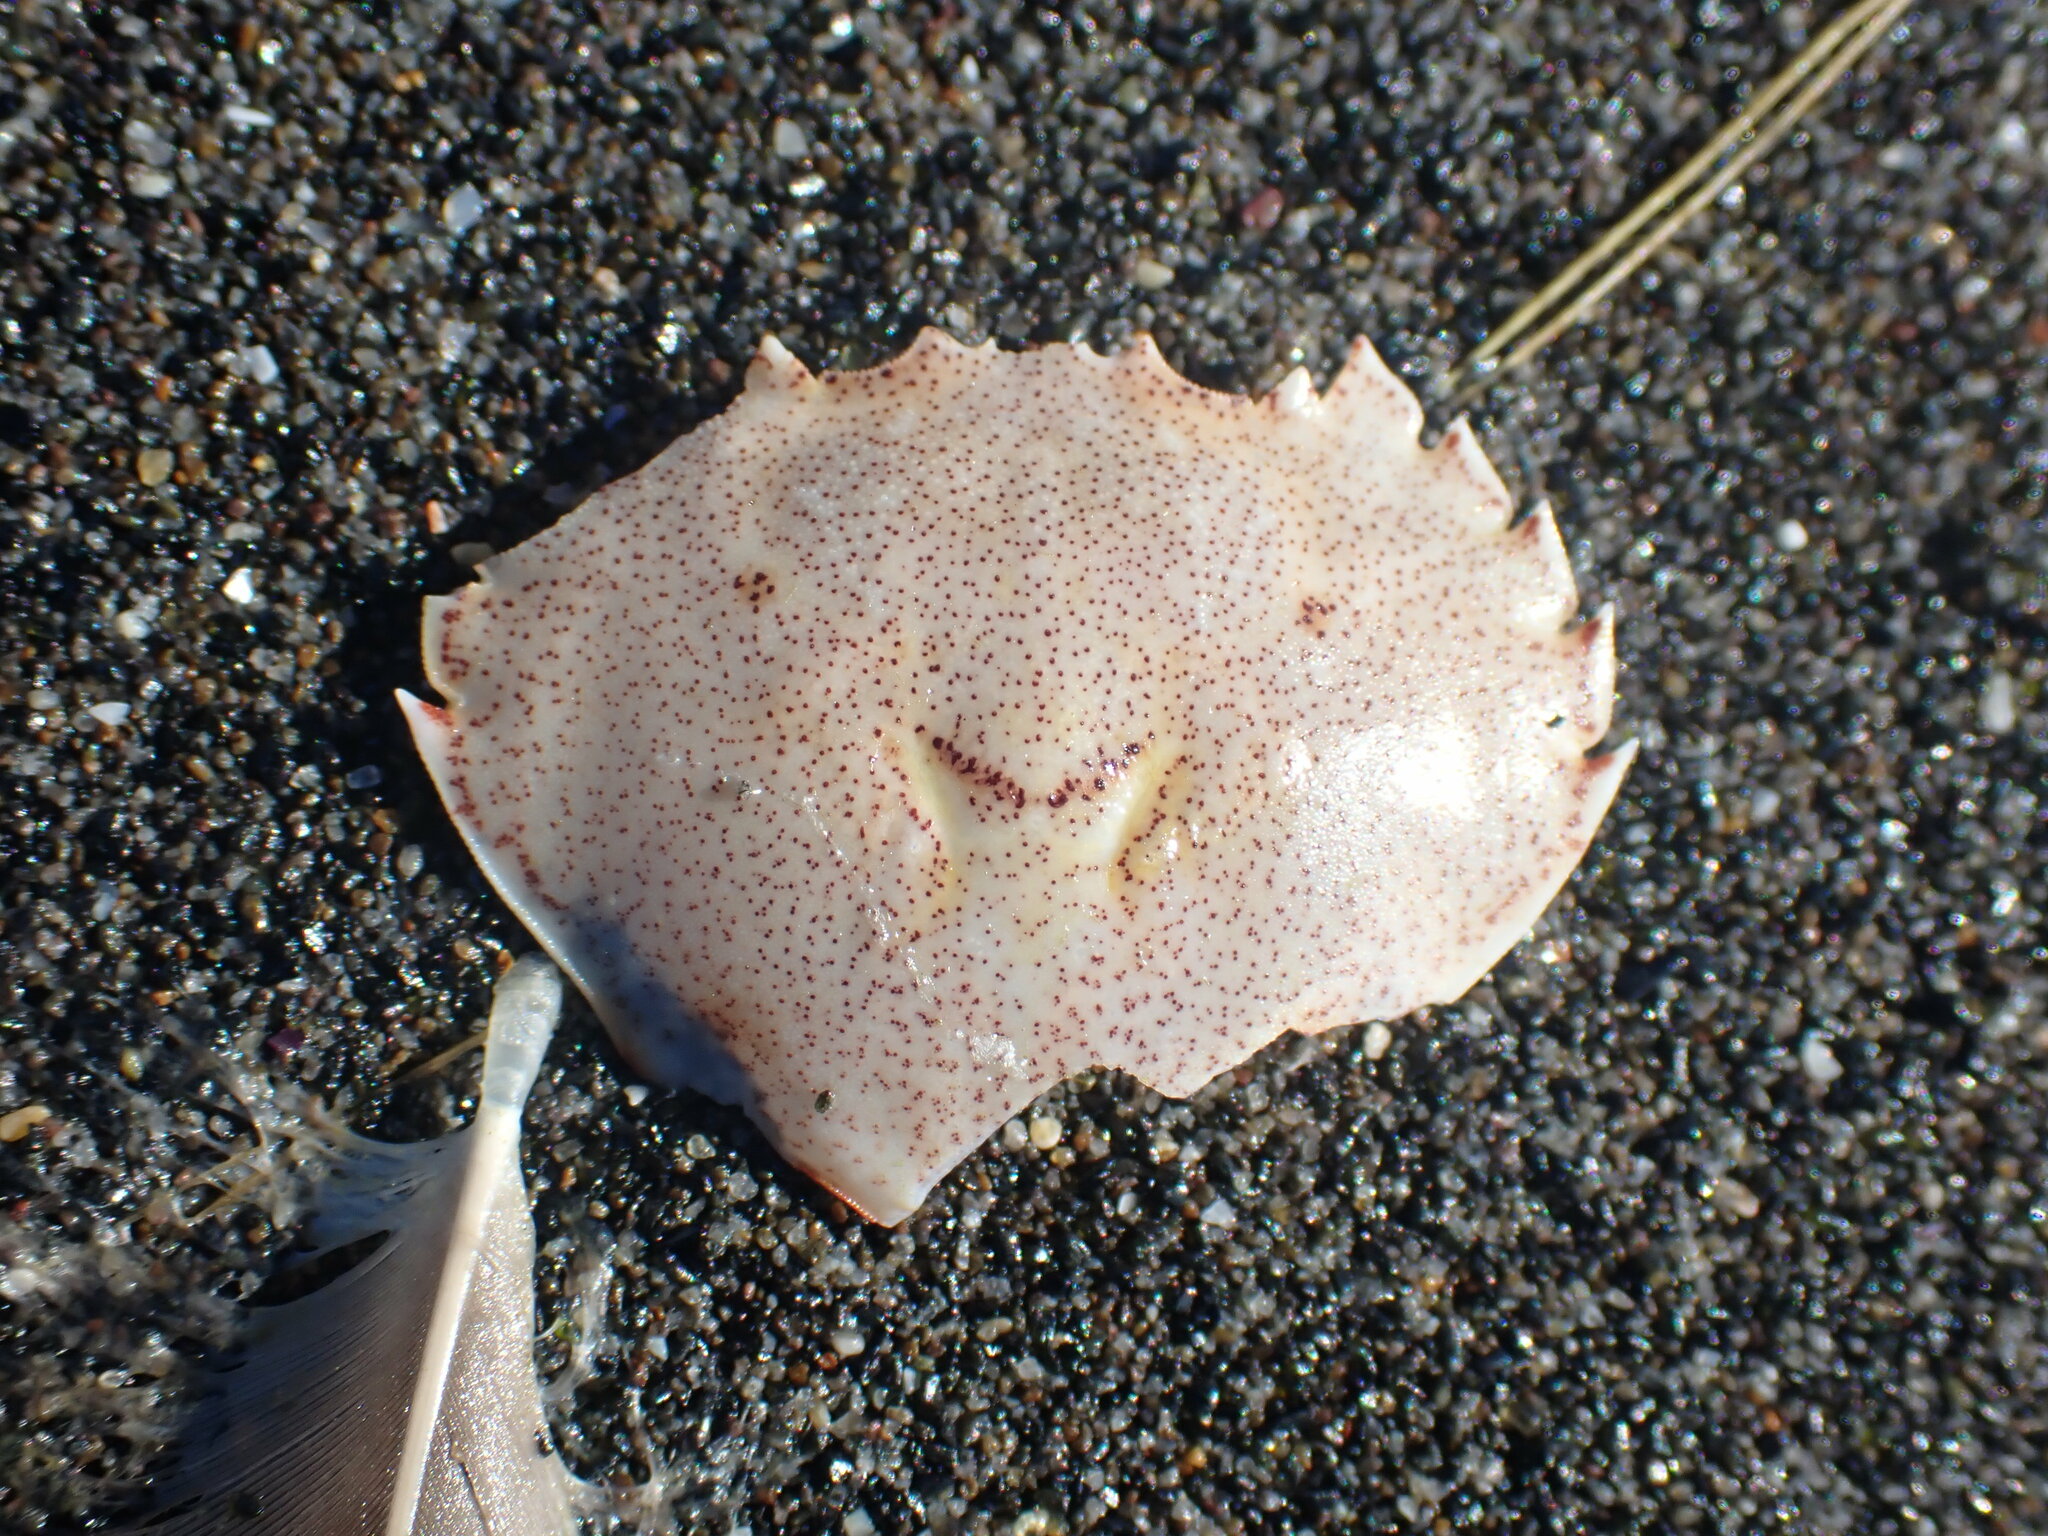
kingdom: Animalia
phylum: Arthropoda
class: Malacostraca
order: Decapoda
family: Ovalipidae
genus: Ovalipes
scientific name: Ovalipes catharus
